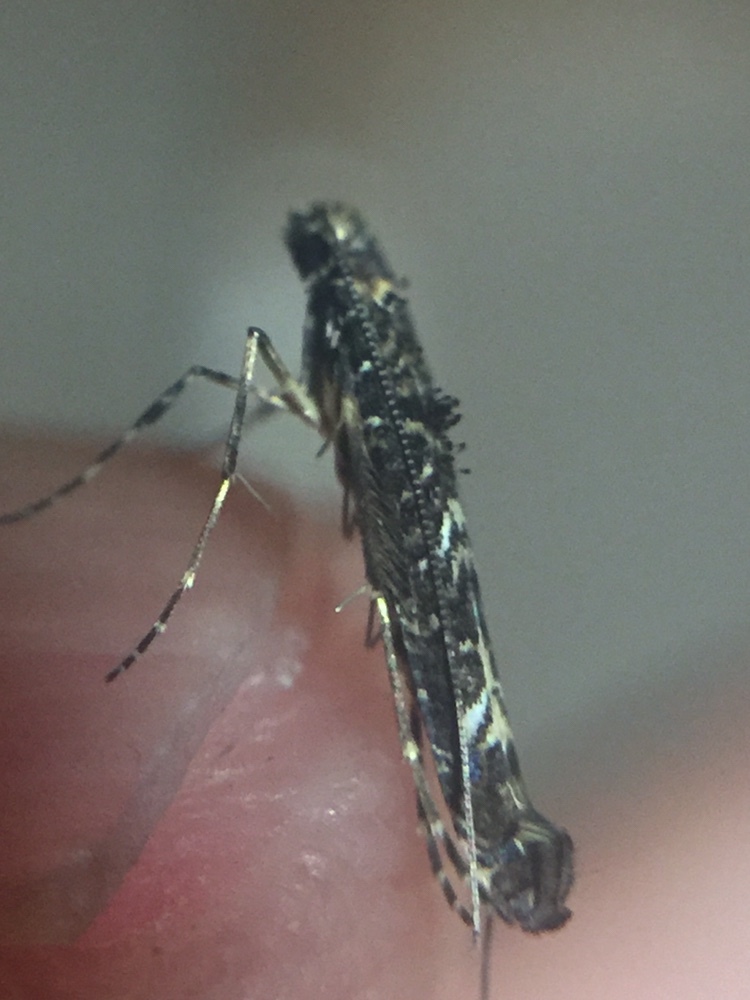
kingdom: Animalia
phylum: Arthropoda
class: Insecta
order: Lepidoptera
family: Gracillariidae
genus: Conopomorpha
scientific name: Conopomorpha cyanospila
